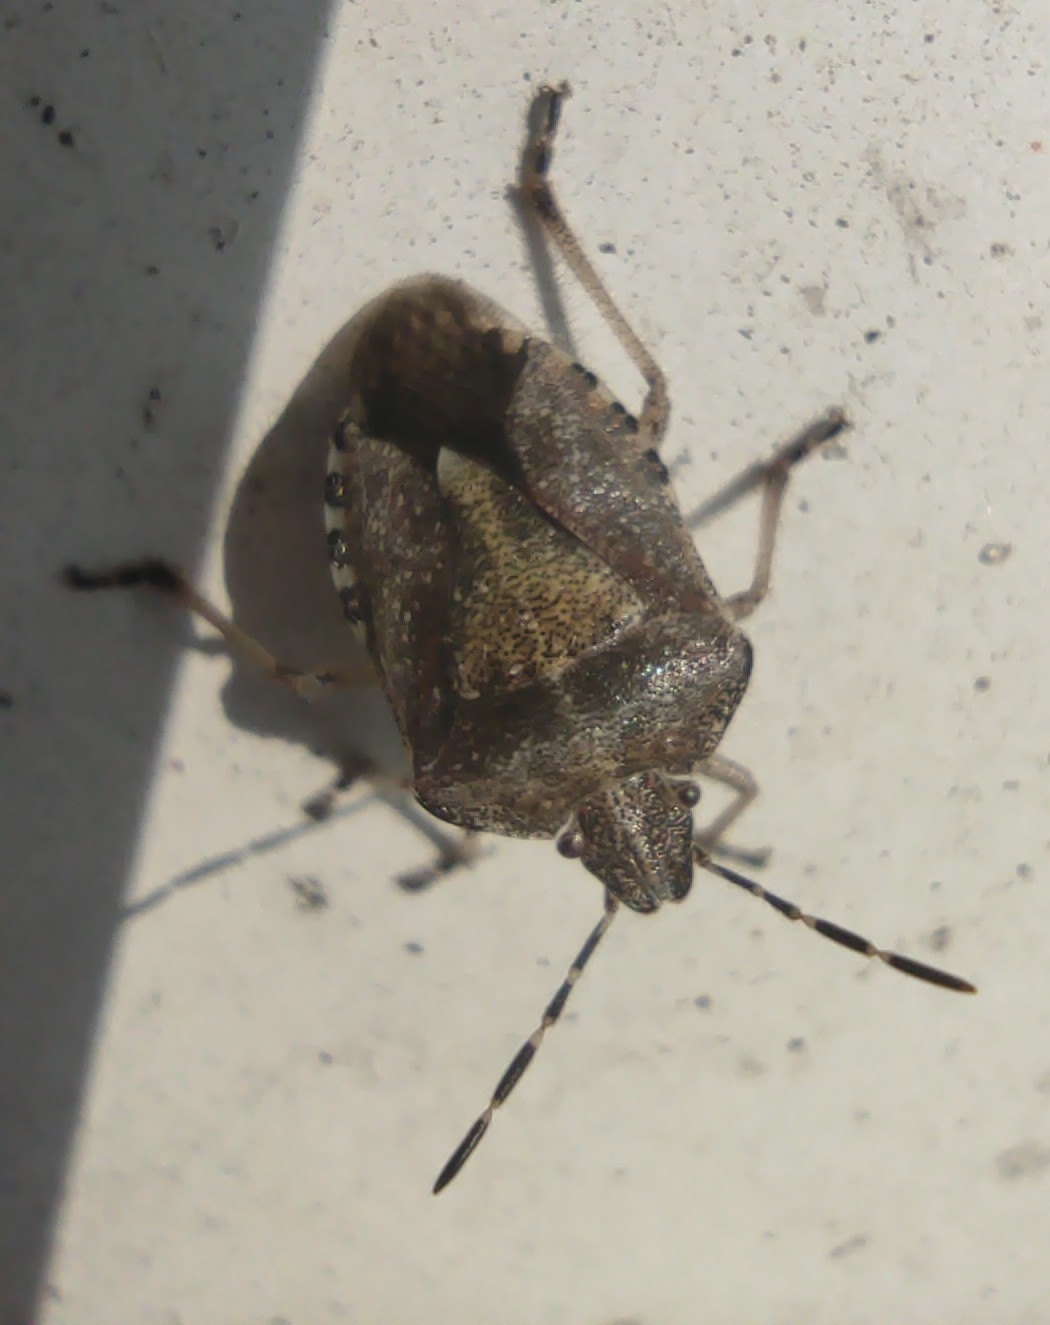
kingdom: Animalia
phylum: Arthropoda
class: Insecta
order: Hemiptera
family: Pentatomidae
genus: Dolycoris
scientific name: Dolycoris baccarum
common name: Sloe bug
